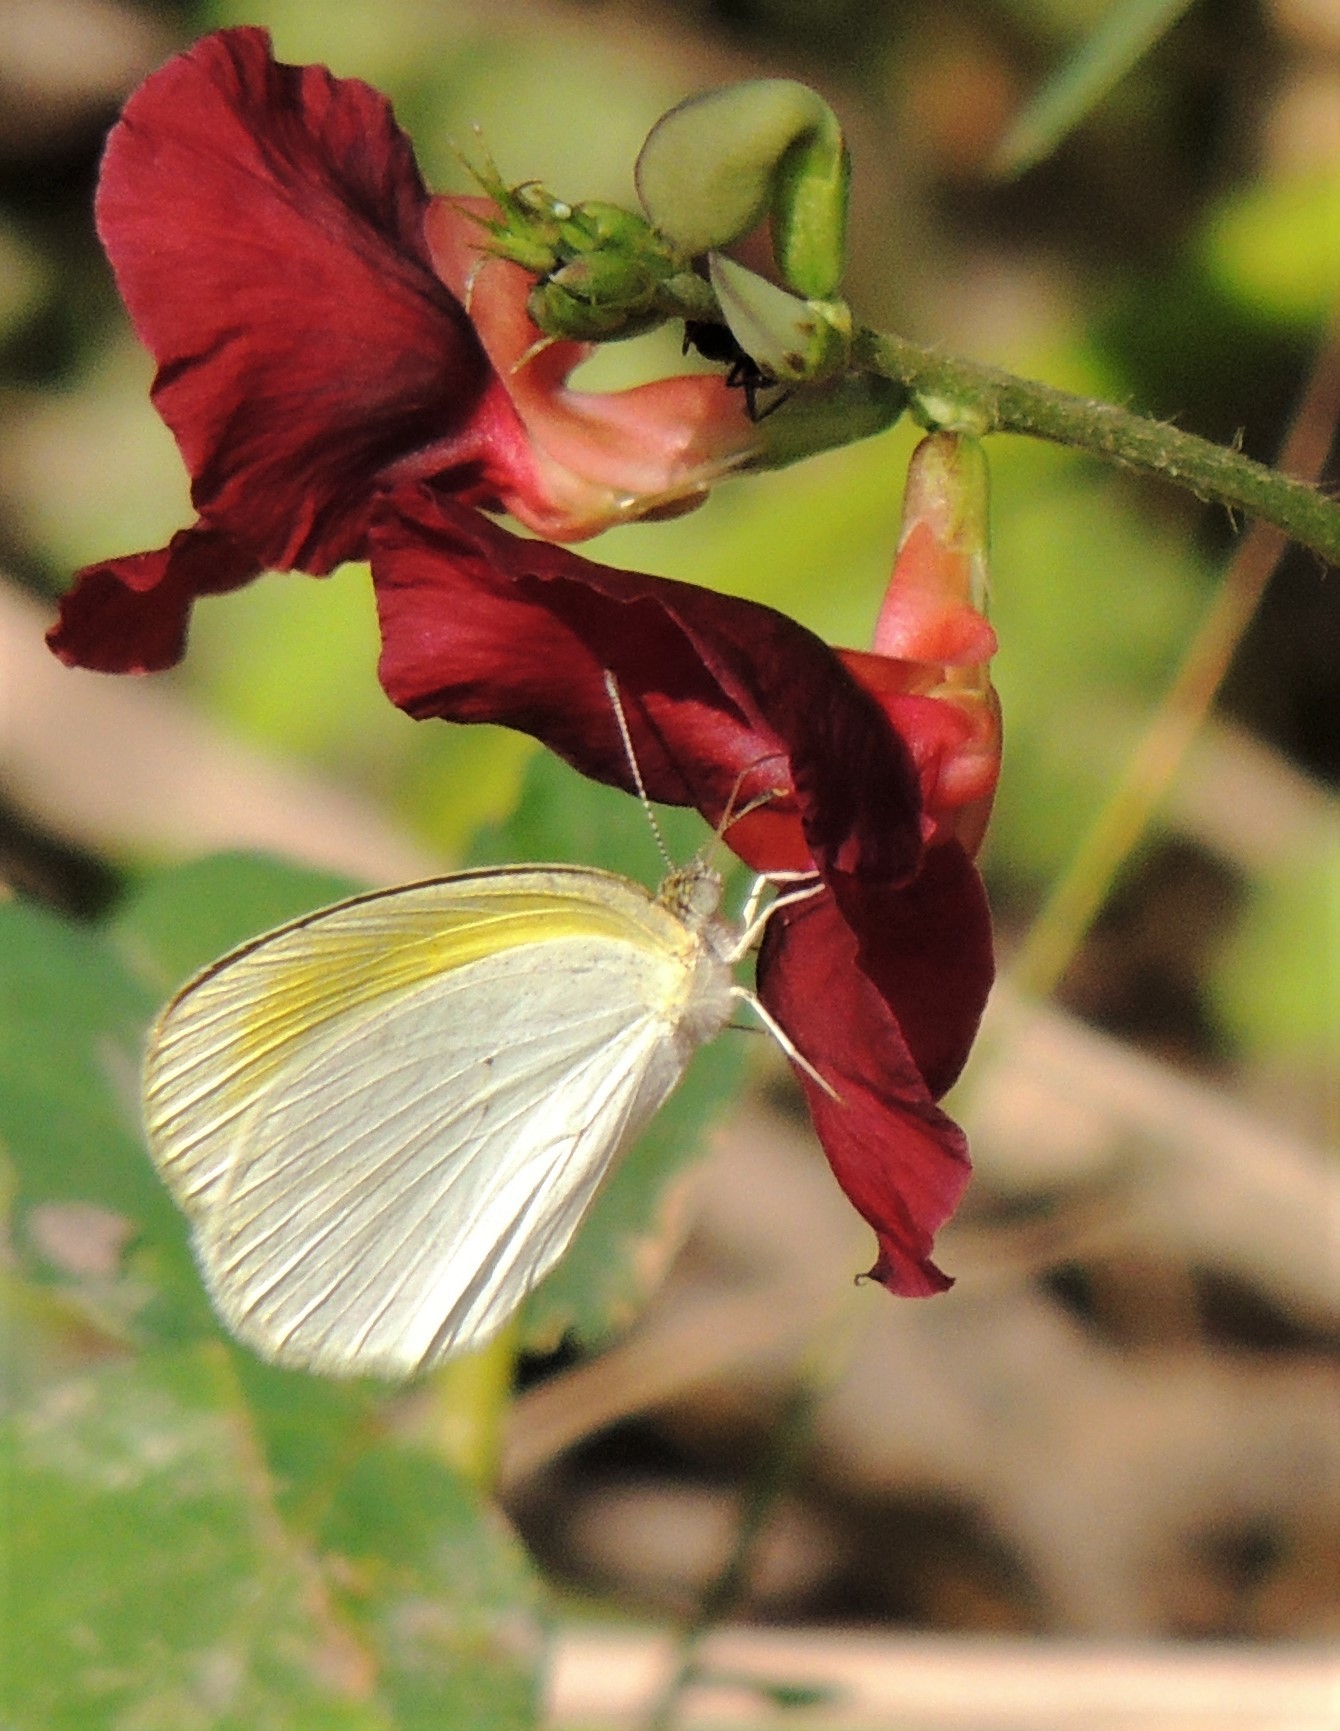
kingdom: Animalia
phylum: Arthropoda
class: Insecta
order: Lepidoptera
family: Pieridae
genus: Eurema
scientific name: Eurema elathea
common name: Banded yellow
